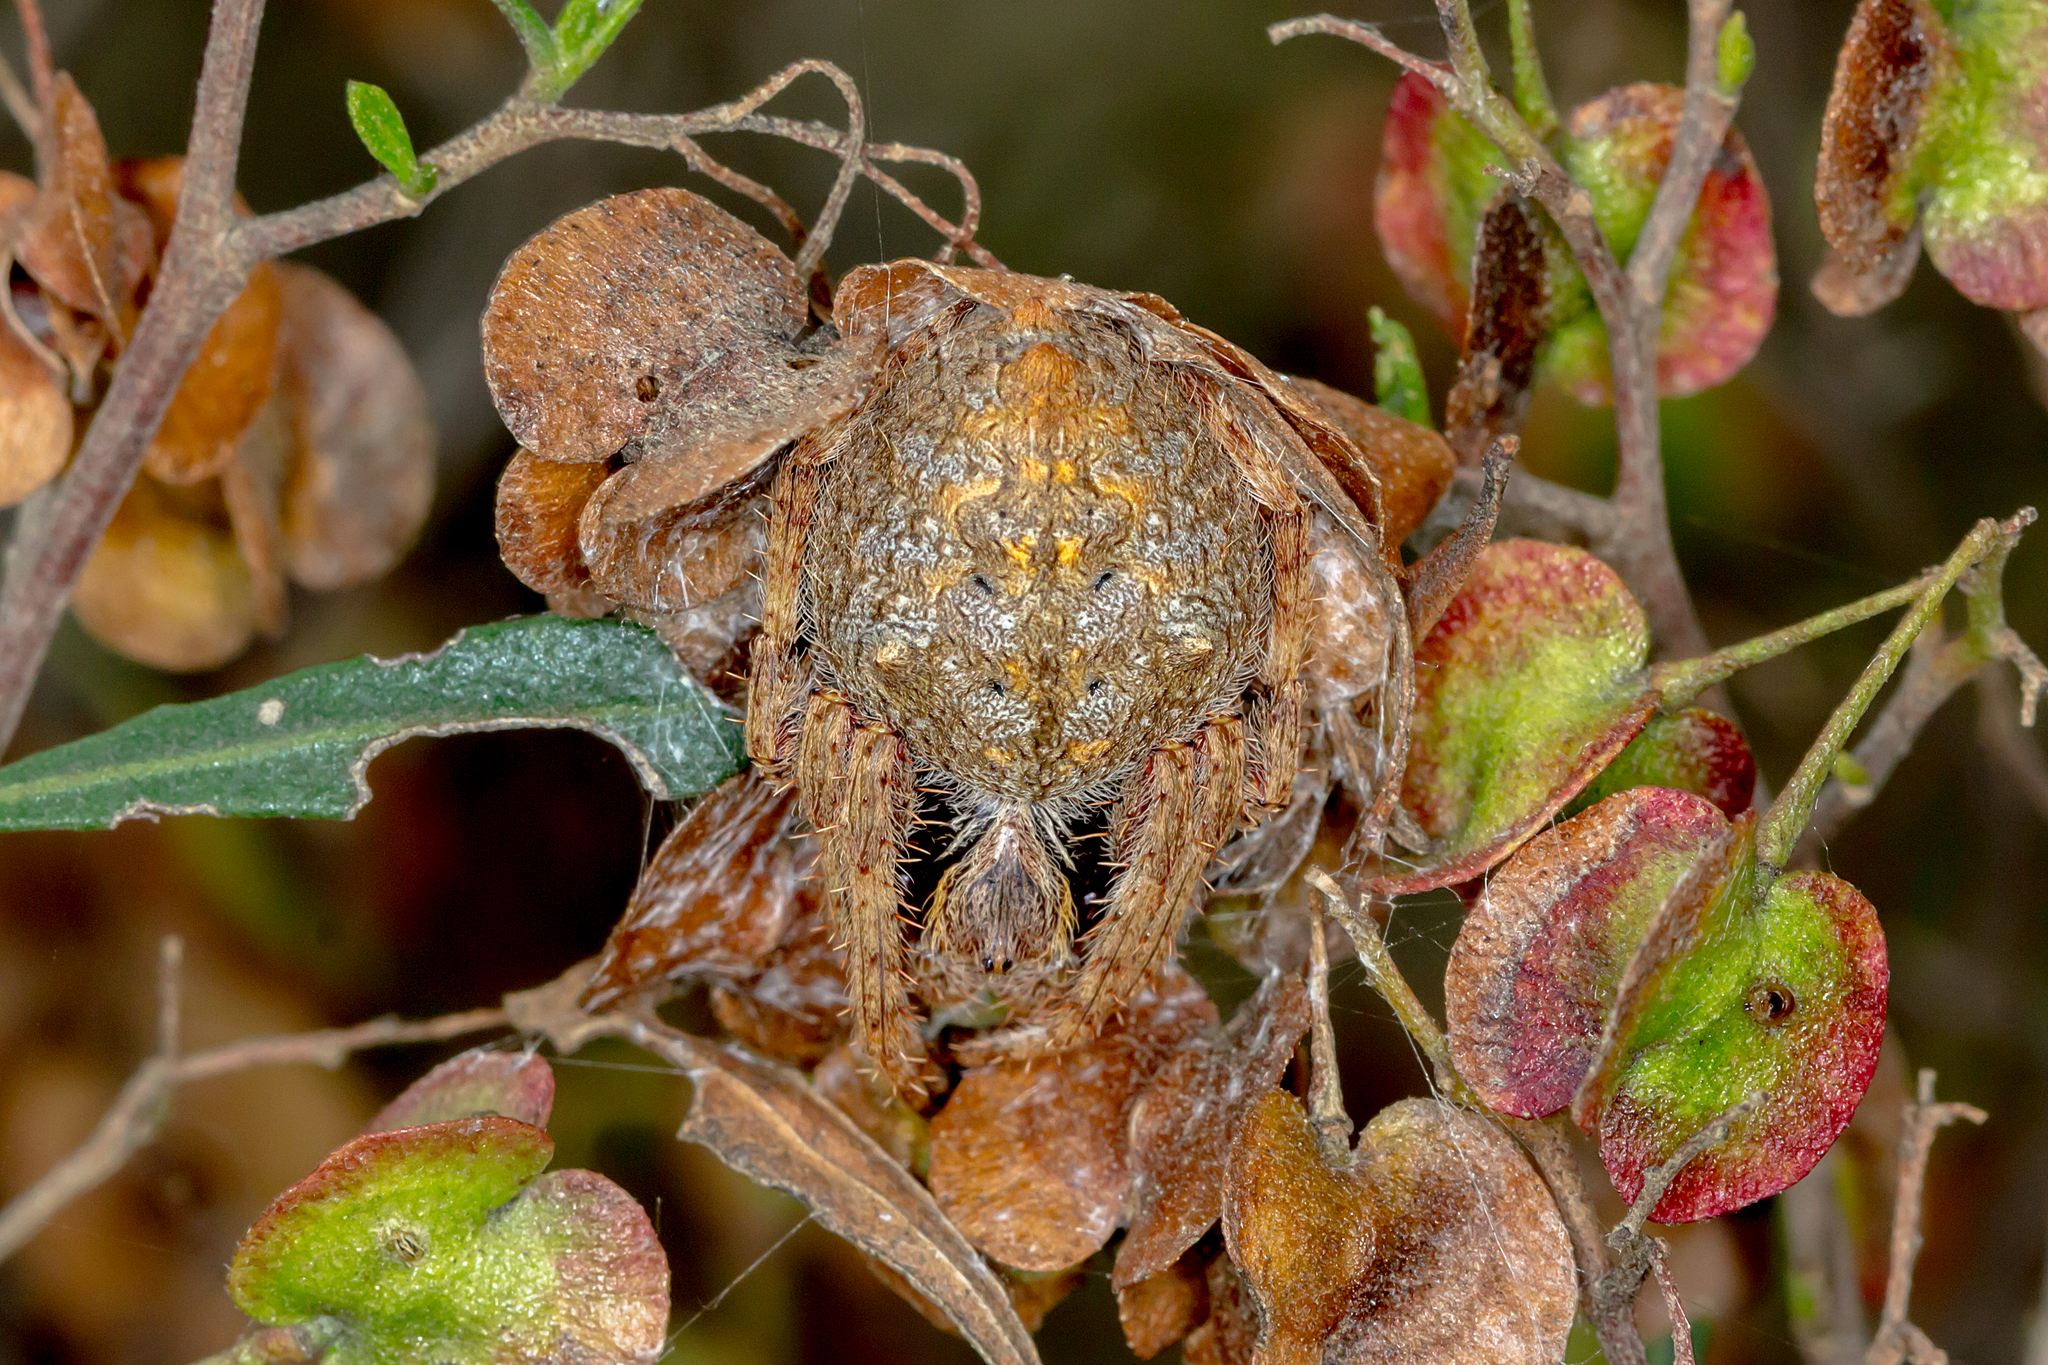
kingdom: Animalia
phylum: Arthropoda
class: Arachnida
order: Araneae
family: Araneidae
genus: Hortophora
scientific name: Hortophora biapicata
